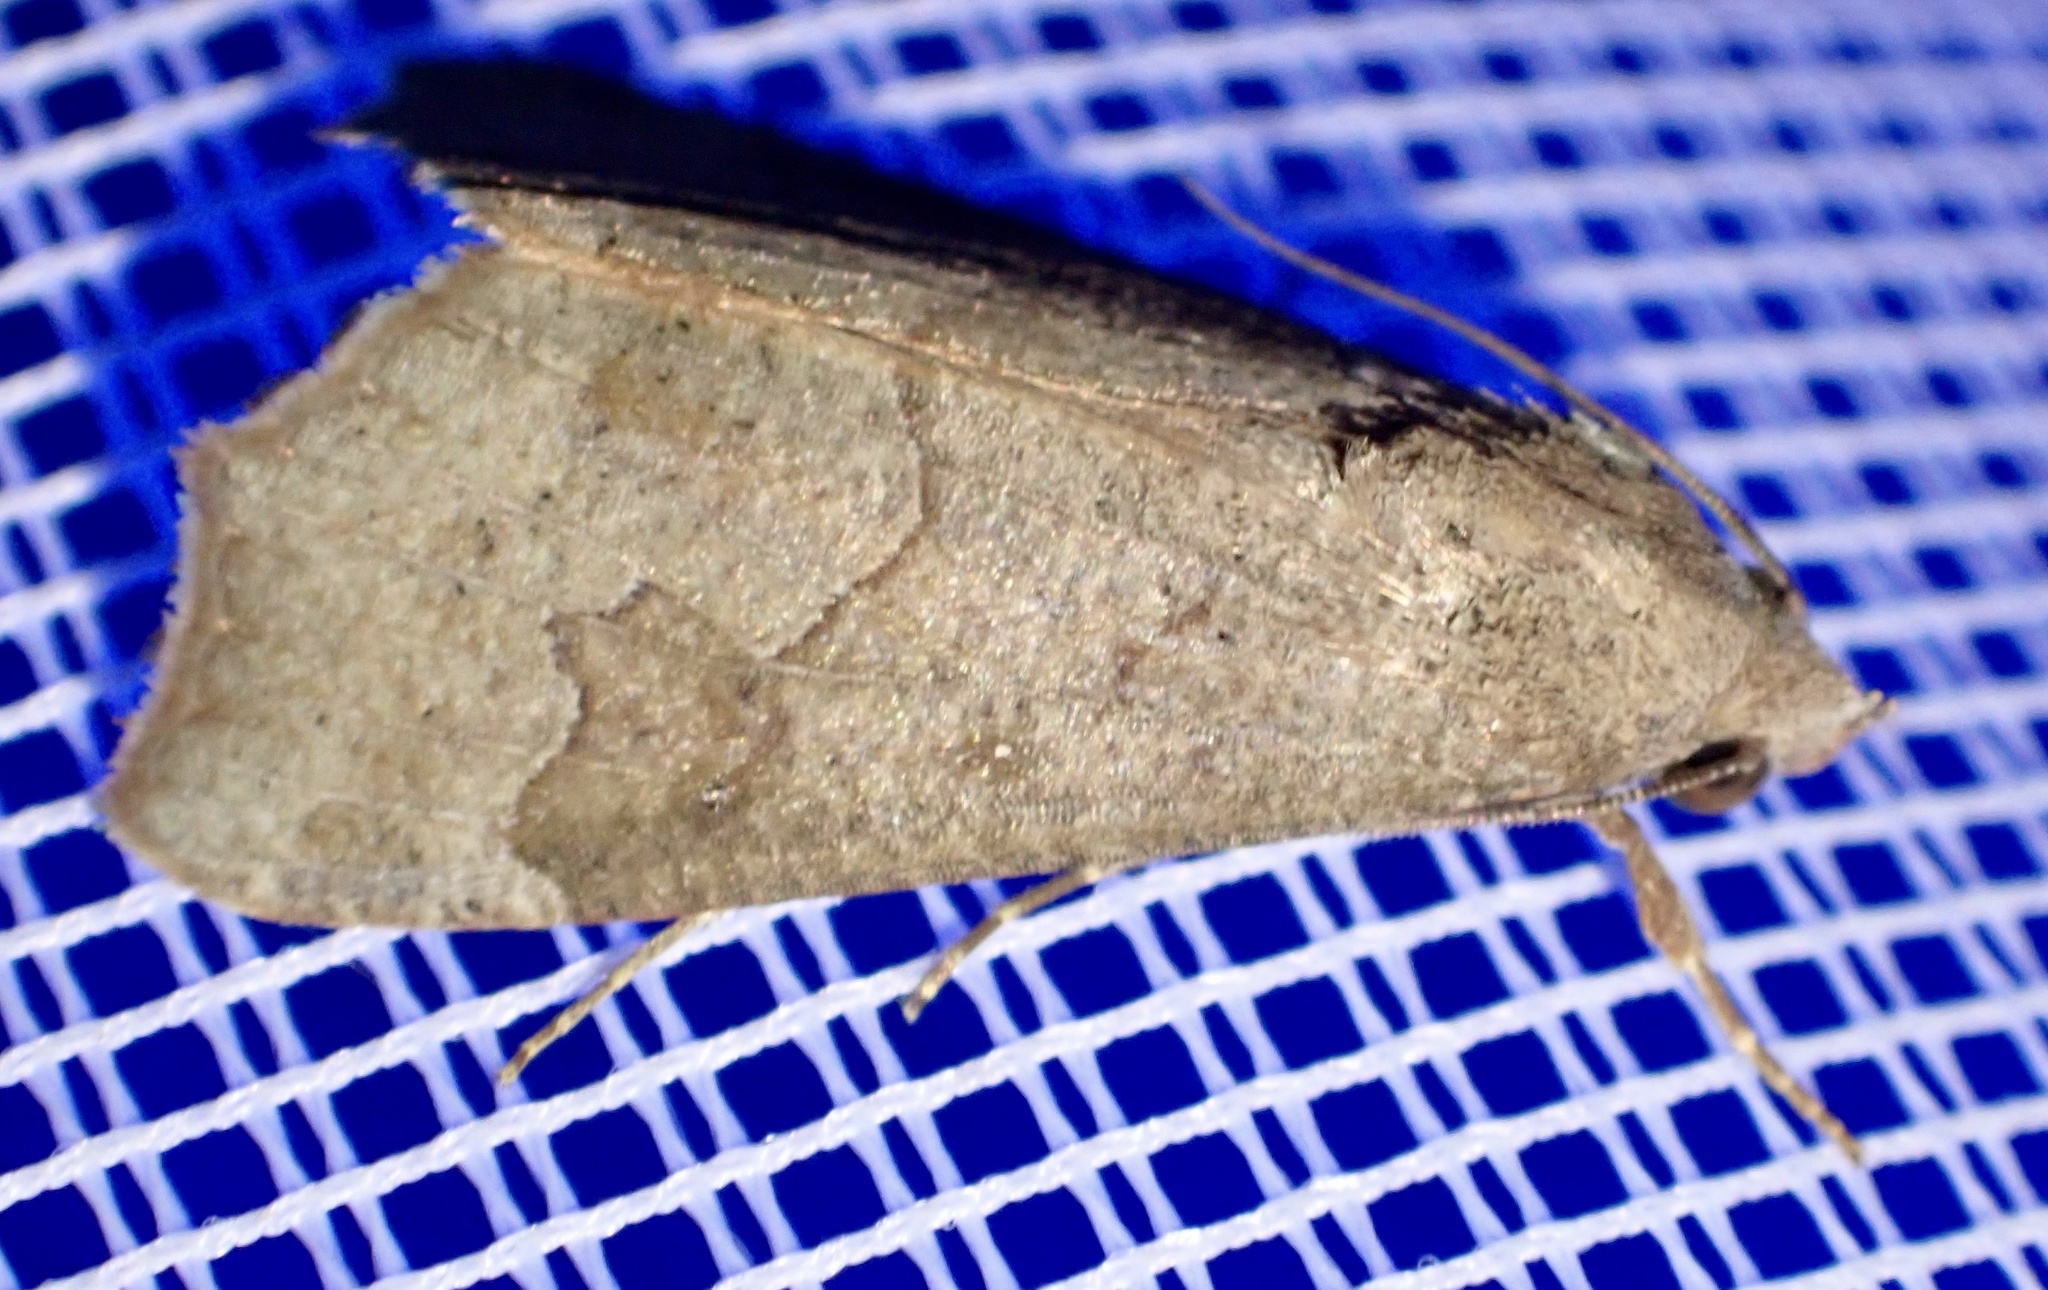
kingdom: Animalia
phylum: Arthropoda
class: Insecta
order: Lepidoptera
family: Erebidae
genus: Anomis
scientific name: Anomis sabulifera
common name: Angled gem
